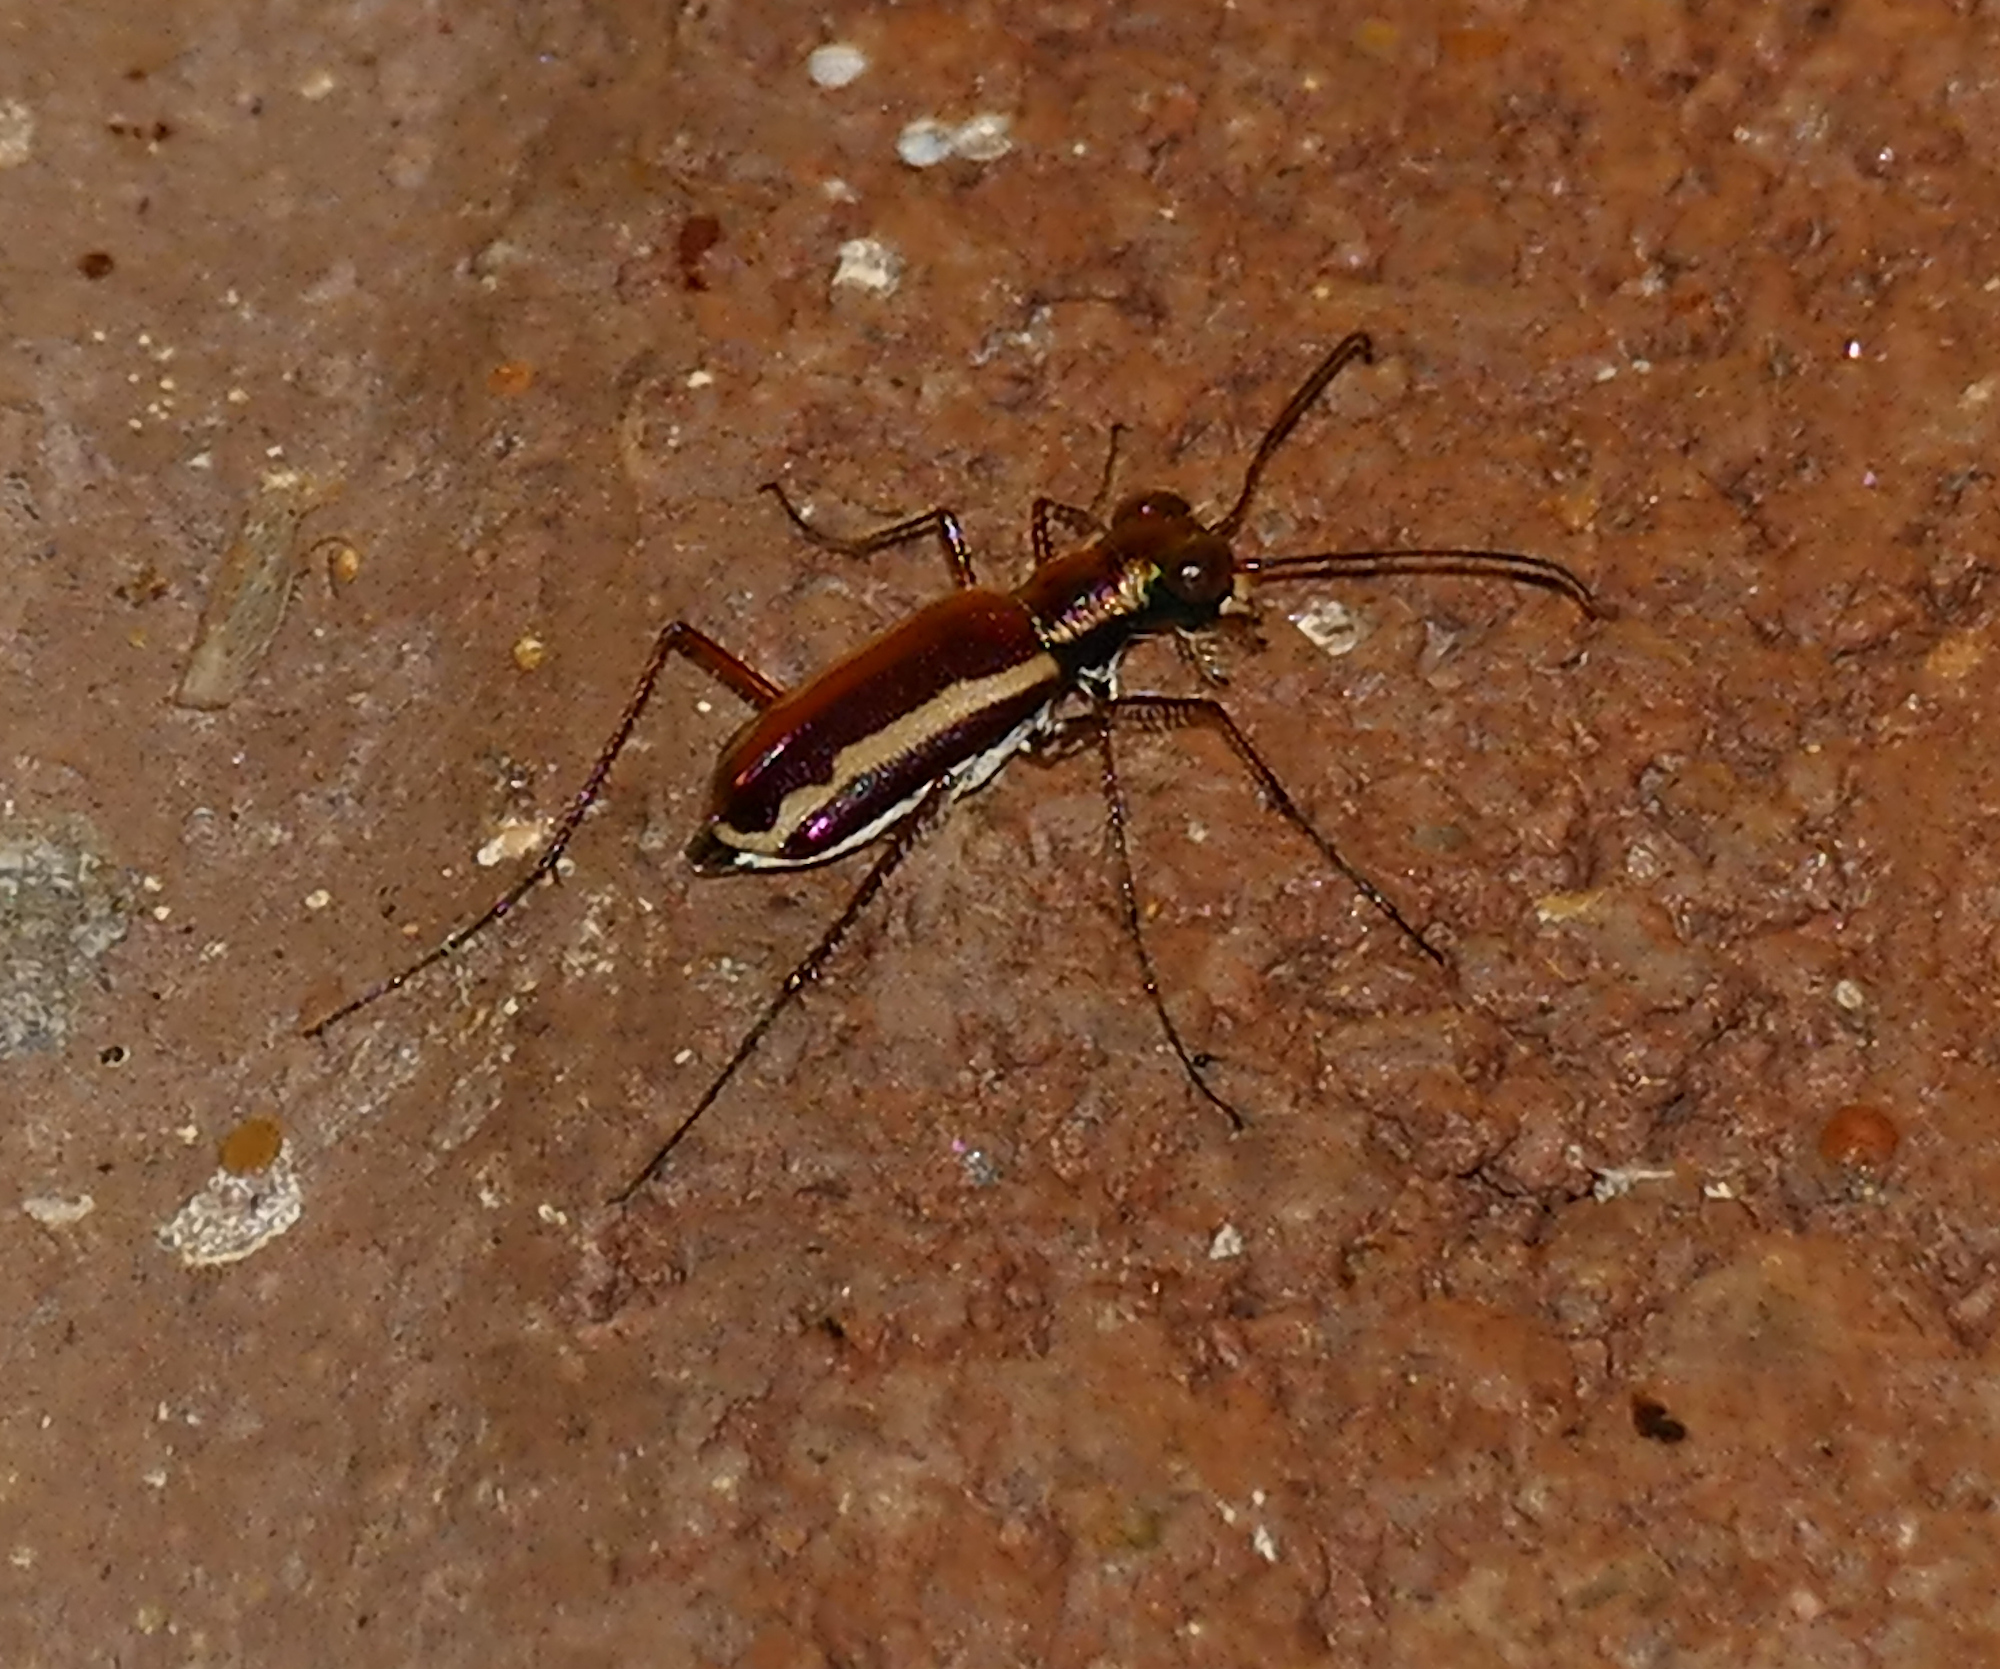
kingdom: Animalia
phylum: Arthropoda
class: Insecta
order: Coleoptera
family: Carabidae
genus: Cylindera
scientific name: Cylindera lemniscata
